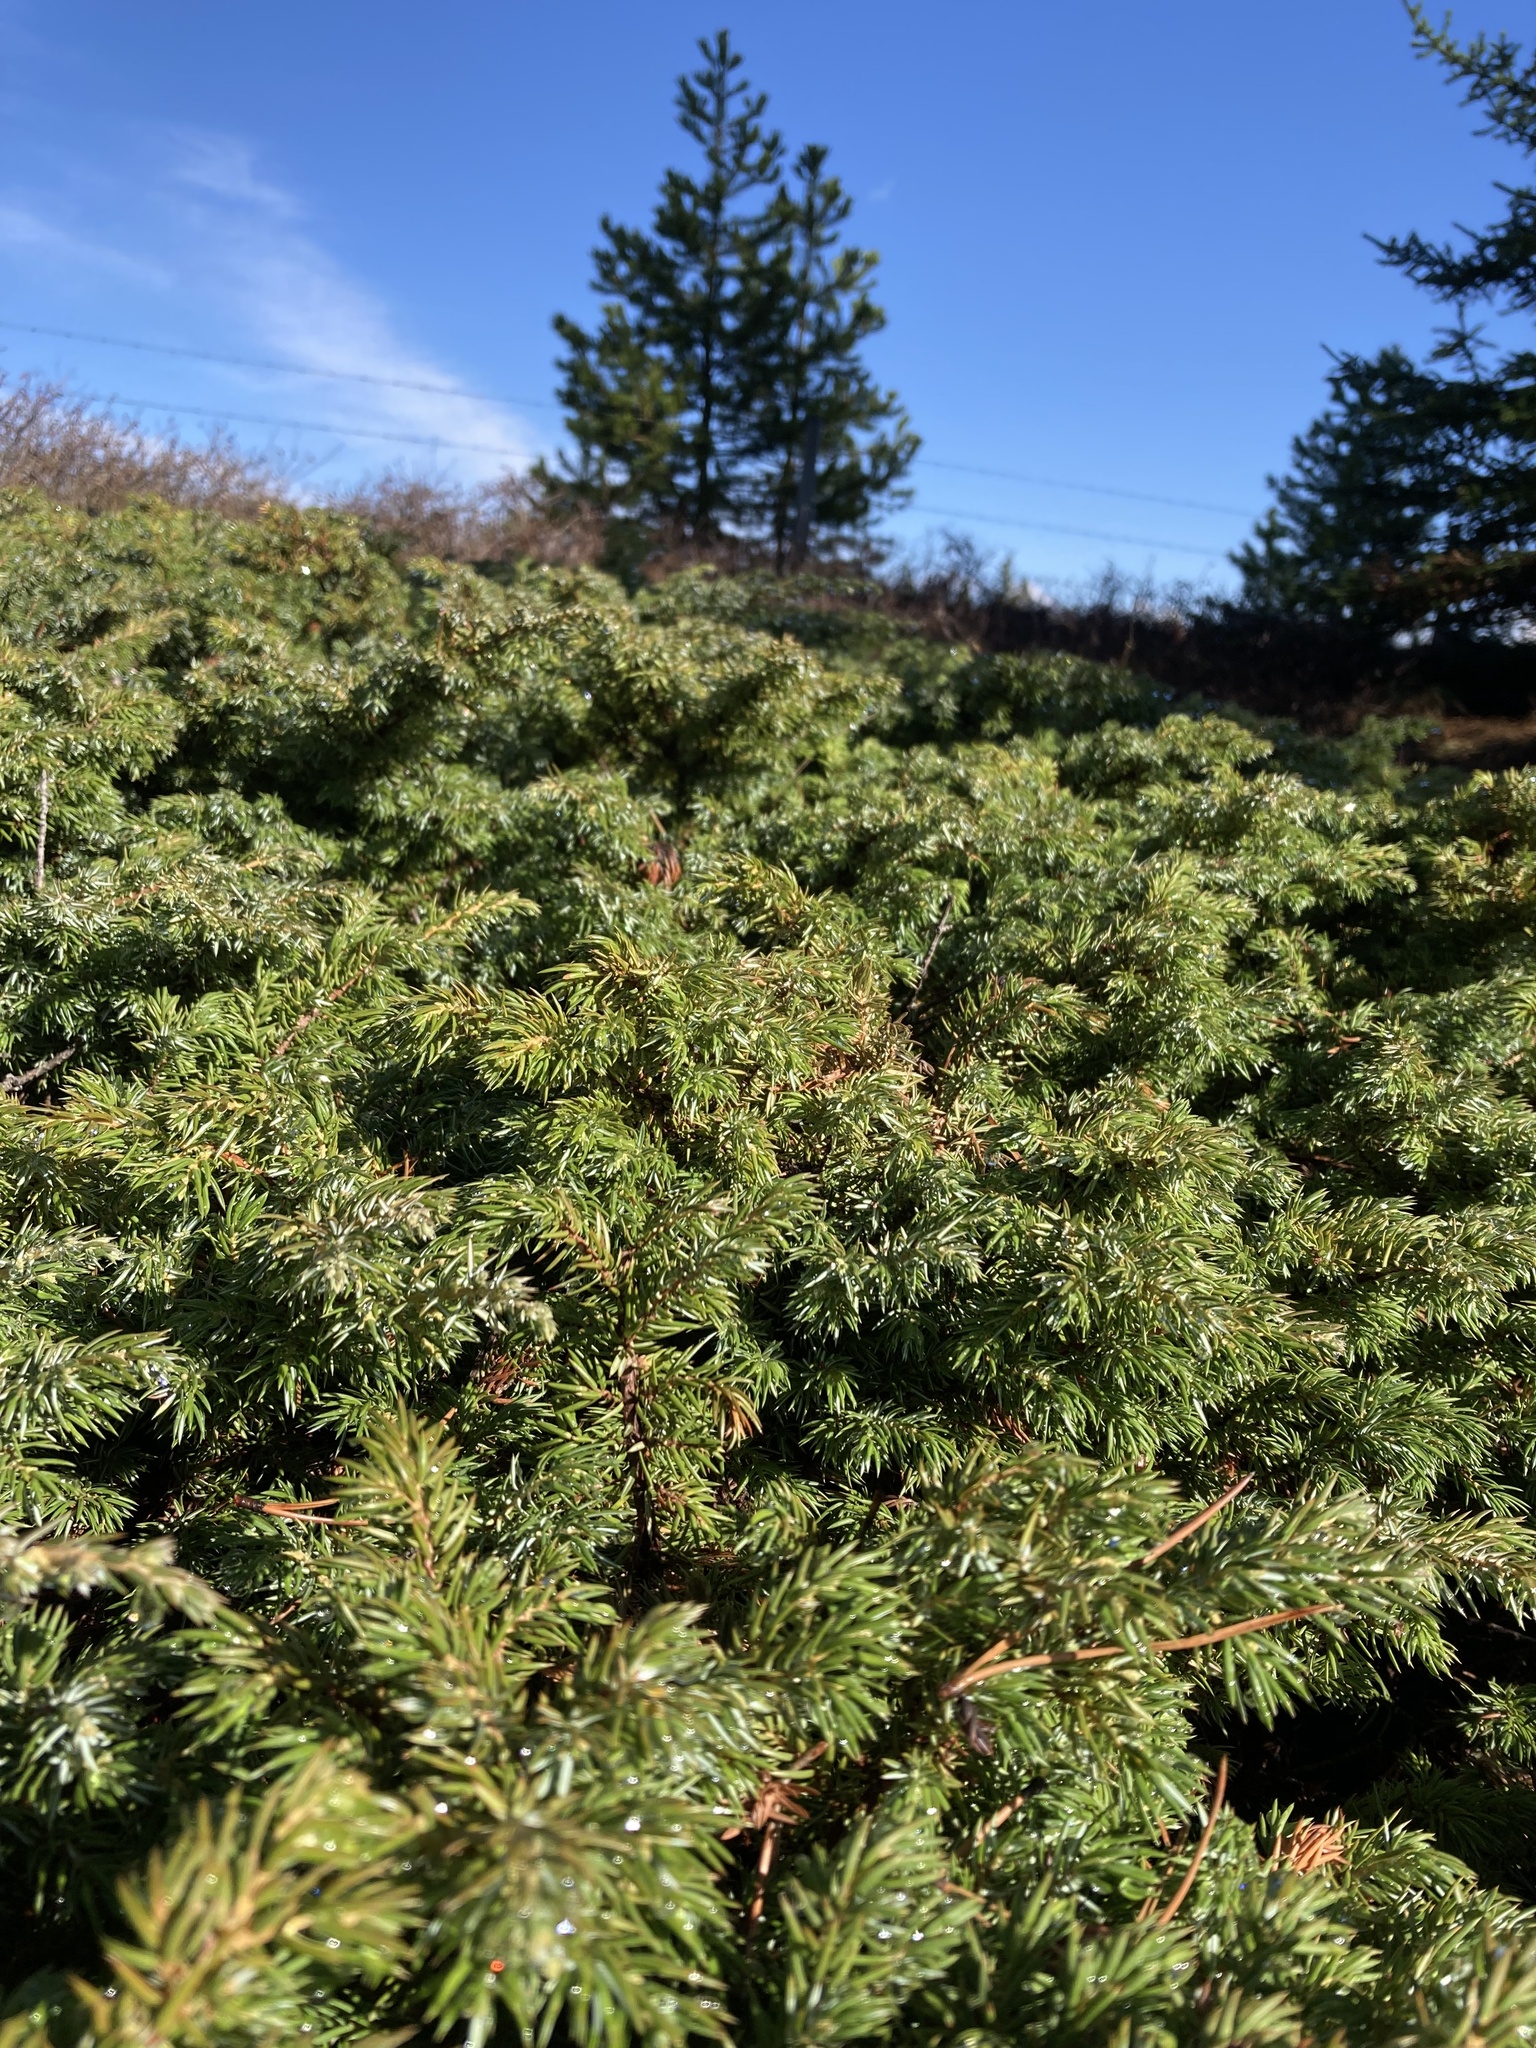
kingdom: Plantae
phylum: Tracheophyta
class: Pinopsida
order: Pinales
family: Cupressaceae
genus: Juniperus
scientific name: Juniperus communis
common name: Common juniper
